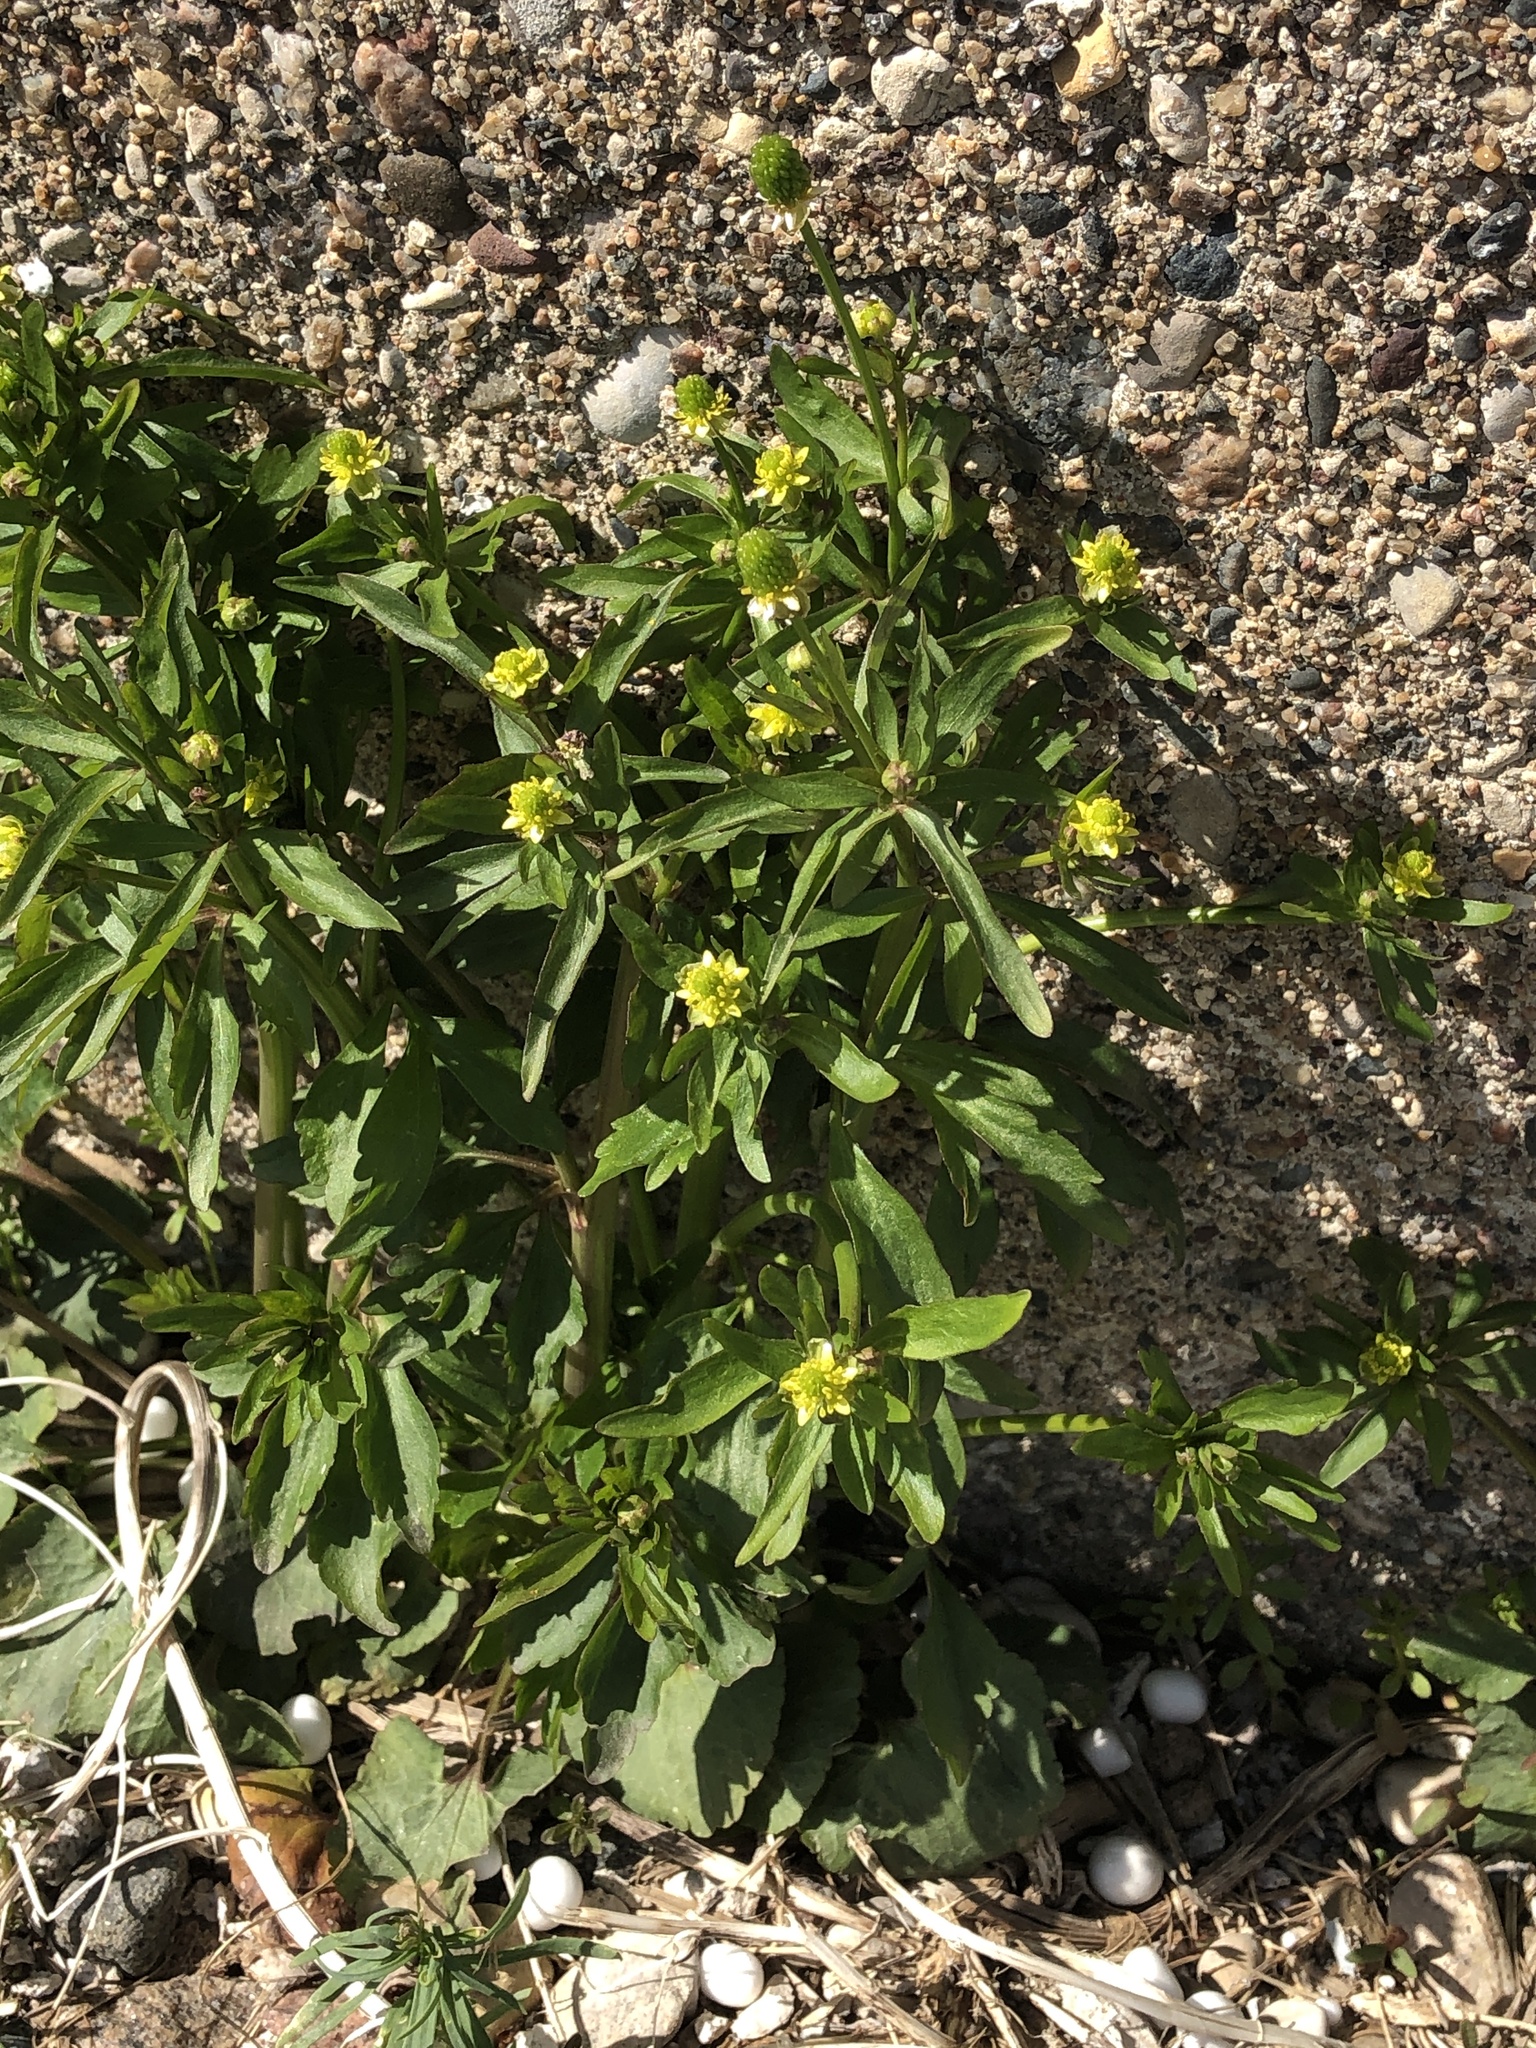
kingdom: Plantae
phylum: Tracheophyta
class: Magnoliopsida
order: Ranunculales
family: Ranunculaceae
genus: Ranunculus
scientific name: Ranunculus abortivus
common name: Early wood buttercup
